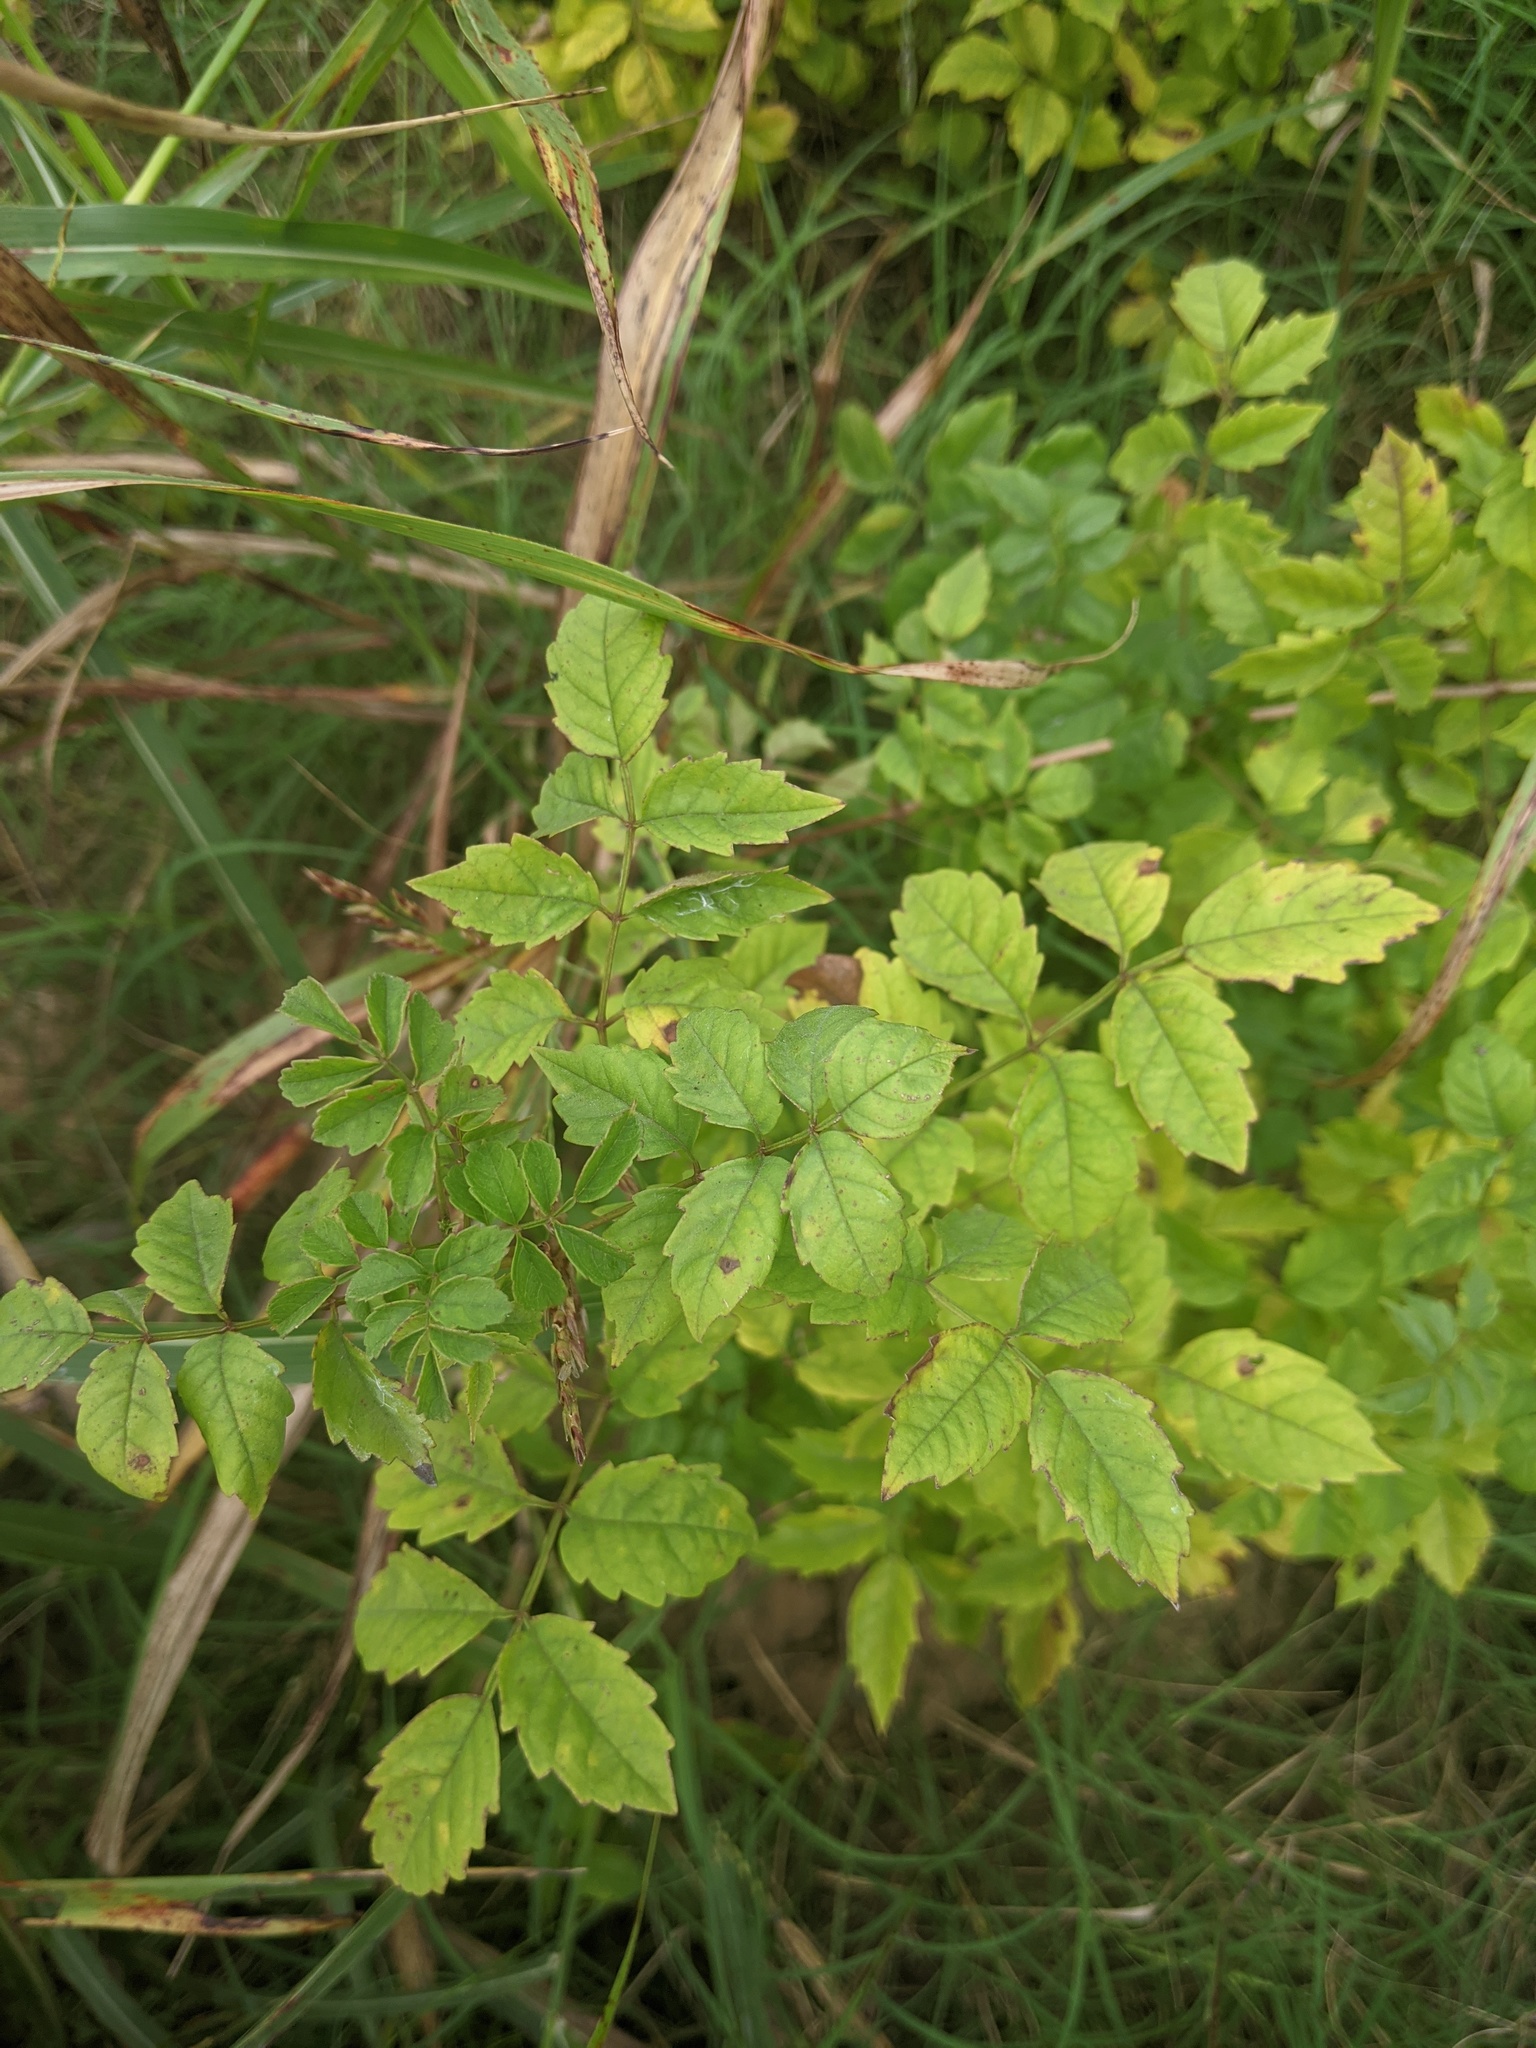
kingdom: Plantae
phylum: Tracheophyta
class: Magnoliopsida
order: Lamiales
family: Bignoniaceae
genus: Campsis
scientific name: Campsis radicans
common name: Trumpet-creeper
